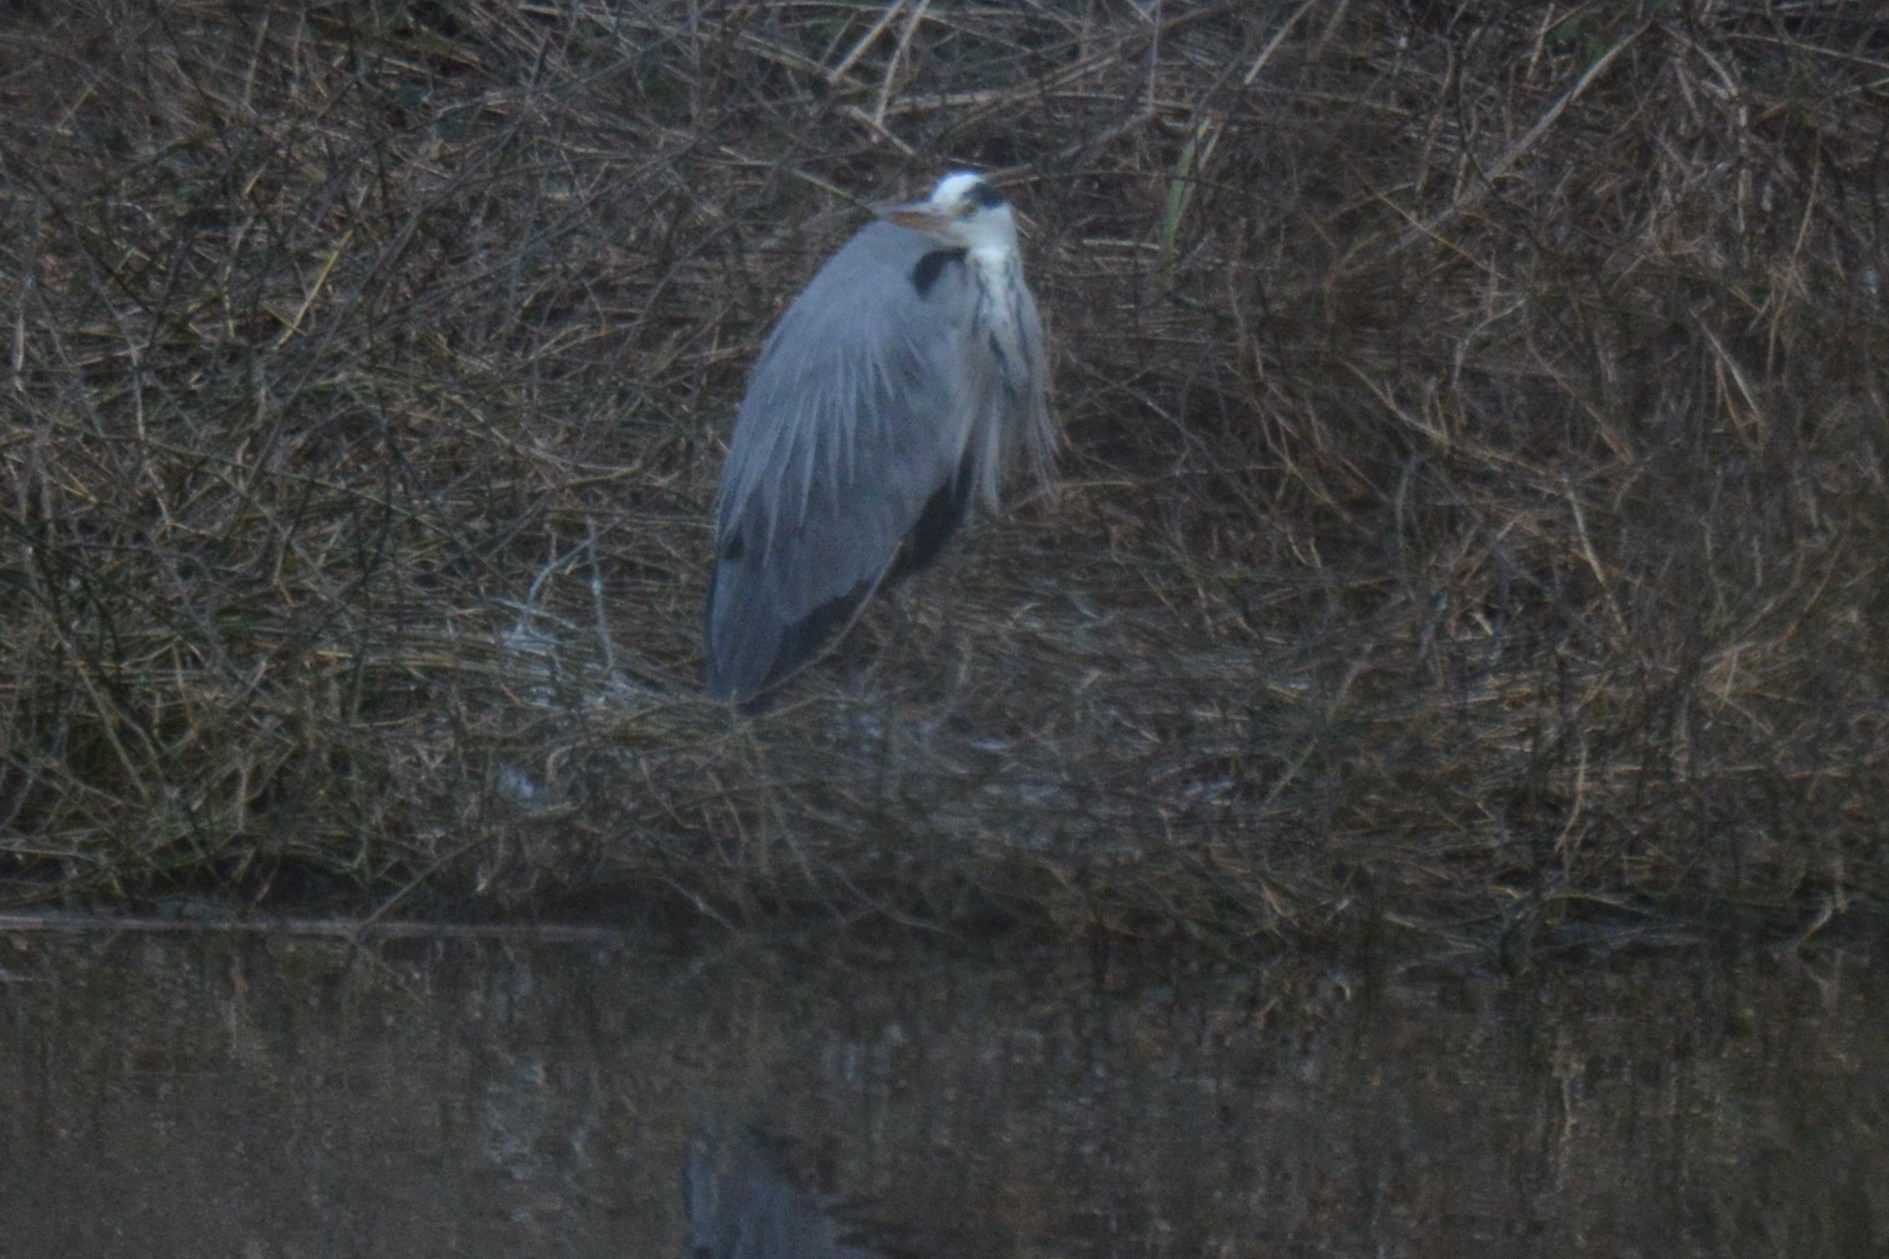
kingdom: Animalia
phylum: Chordata
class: Aves
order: Pelecaniformes
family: Ardeidae
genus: Ardea
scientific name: Ardea cinerea
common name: Grey heron
